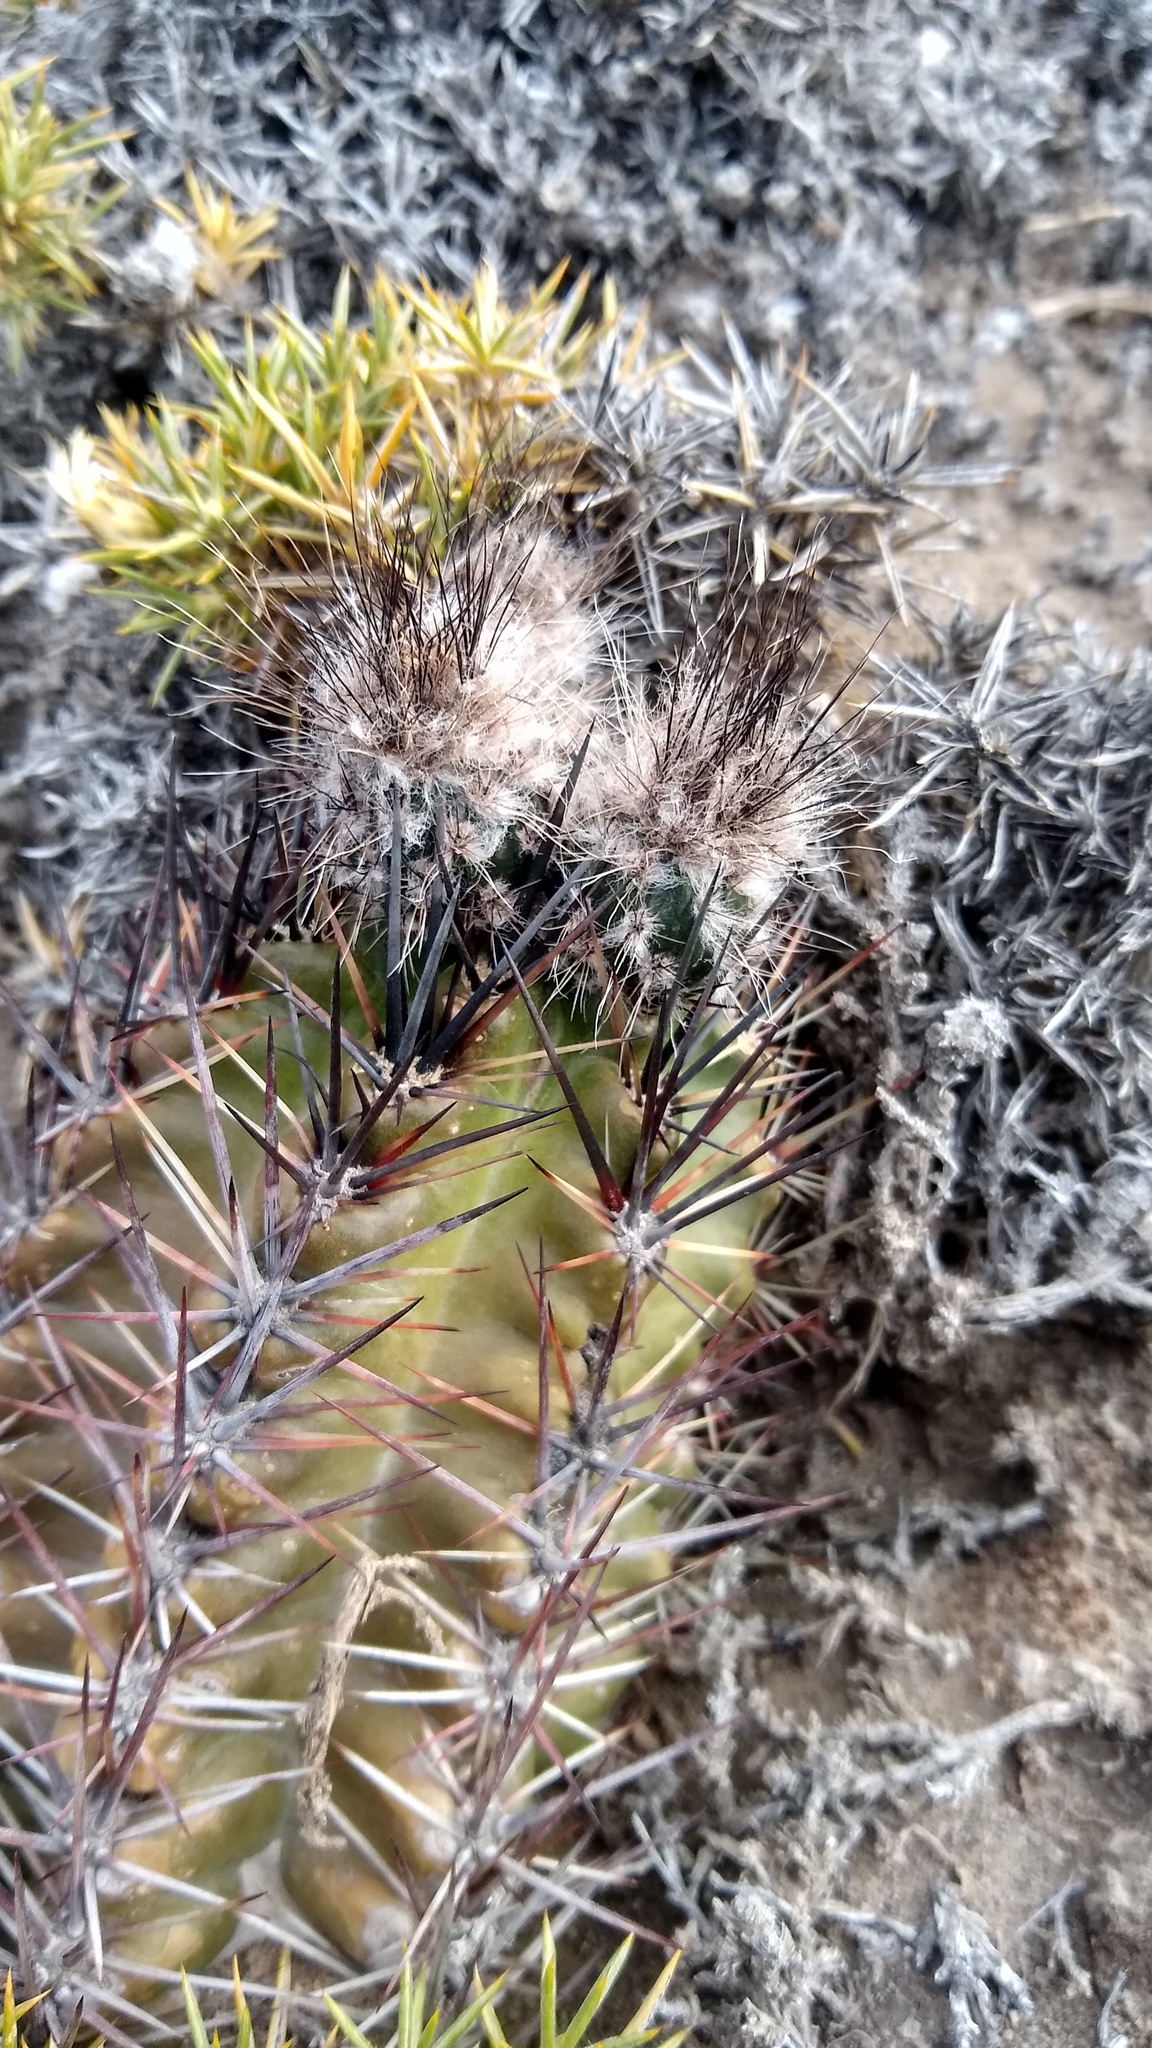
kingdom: Plantae
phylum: Tracheophyta
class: Magnoliopsida
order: Caryophyllales
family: Cactaceae
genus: Austrocactus
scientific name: Austrocactus aonikenkensis
